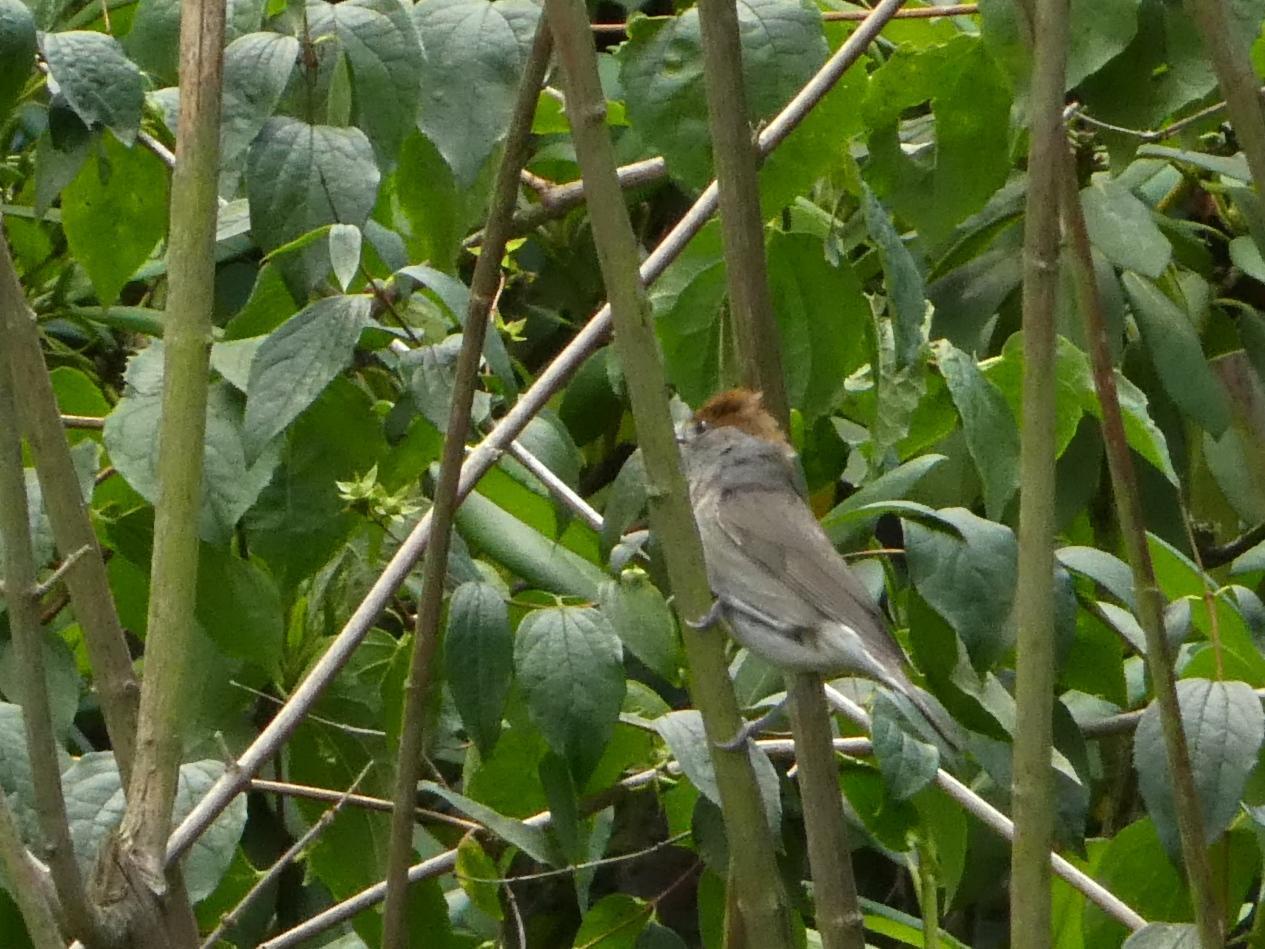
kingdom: Animalia
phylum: Chordata
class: Aves
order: Passeriformes
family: Sylviidae
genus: Sylvia
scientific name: Sylvia atricapilla
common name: Eurasian blackcap
